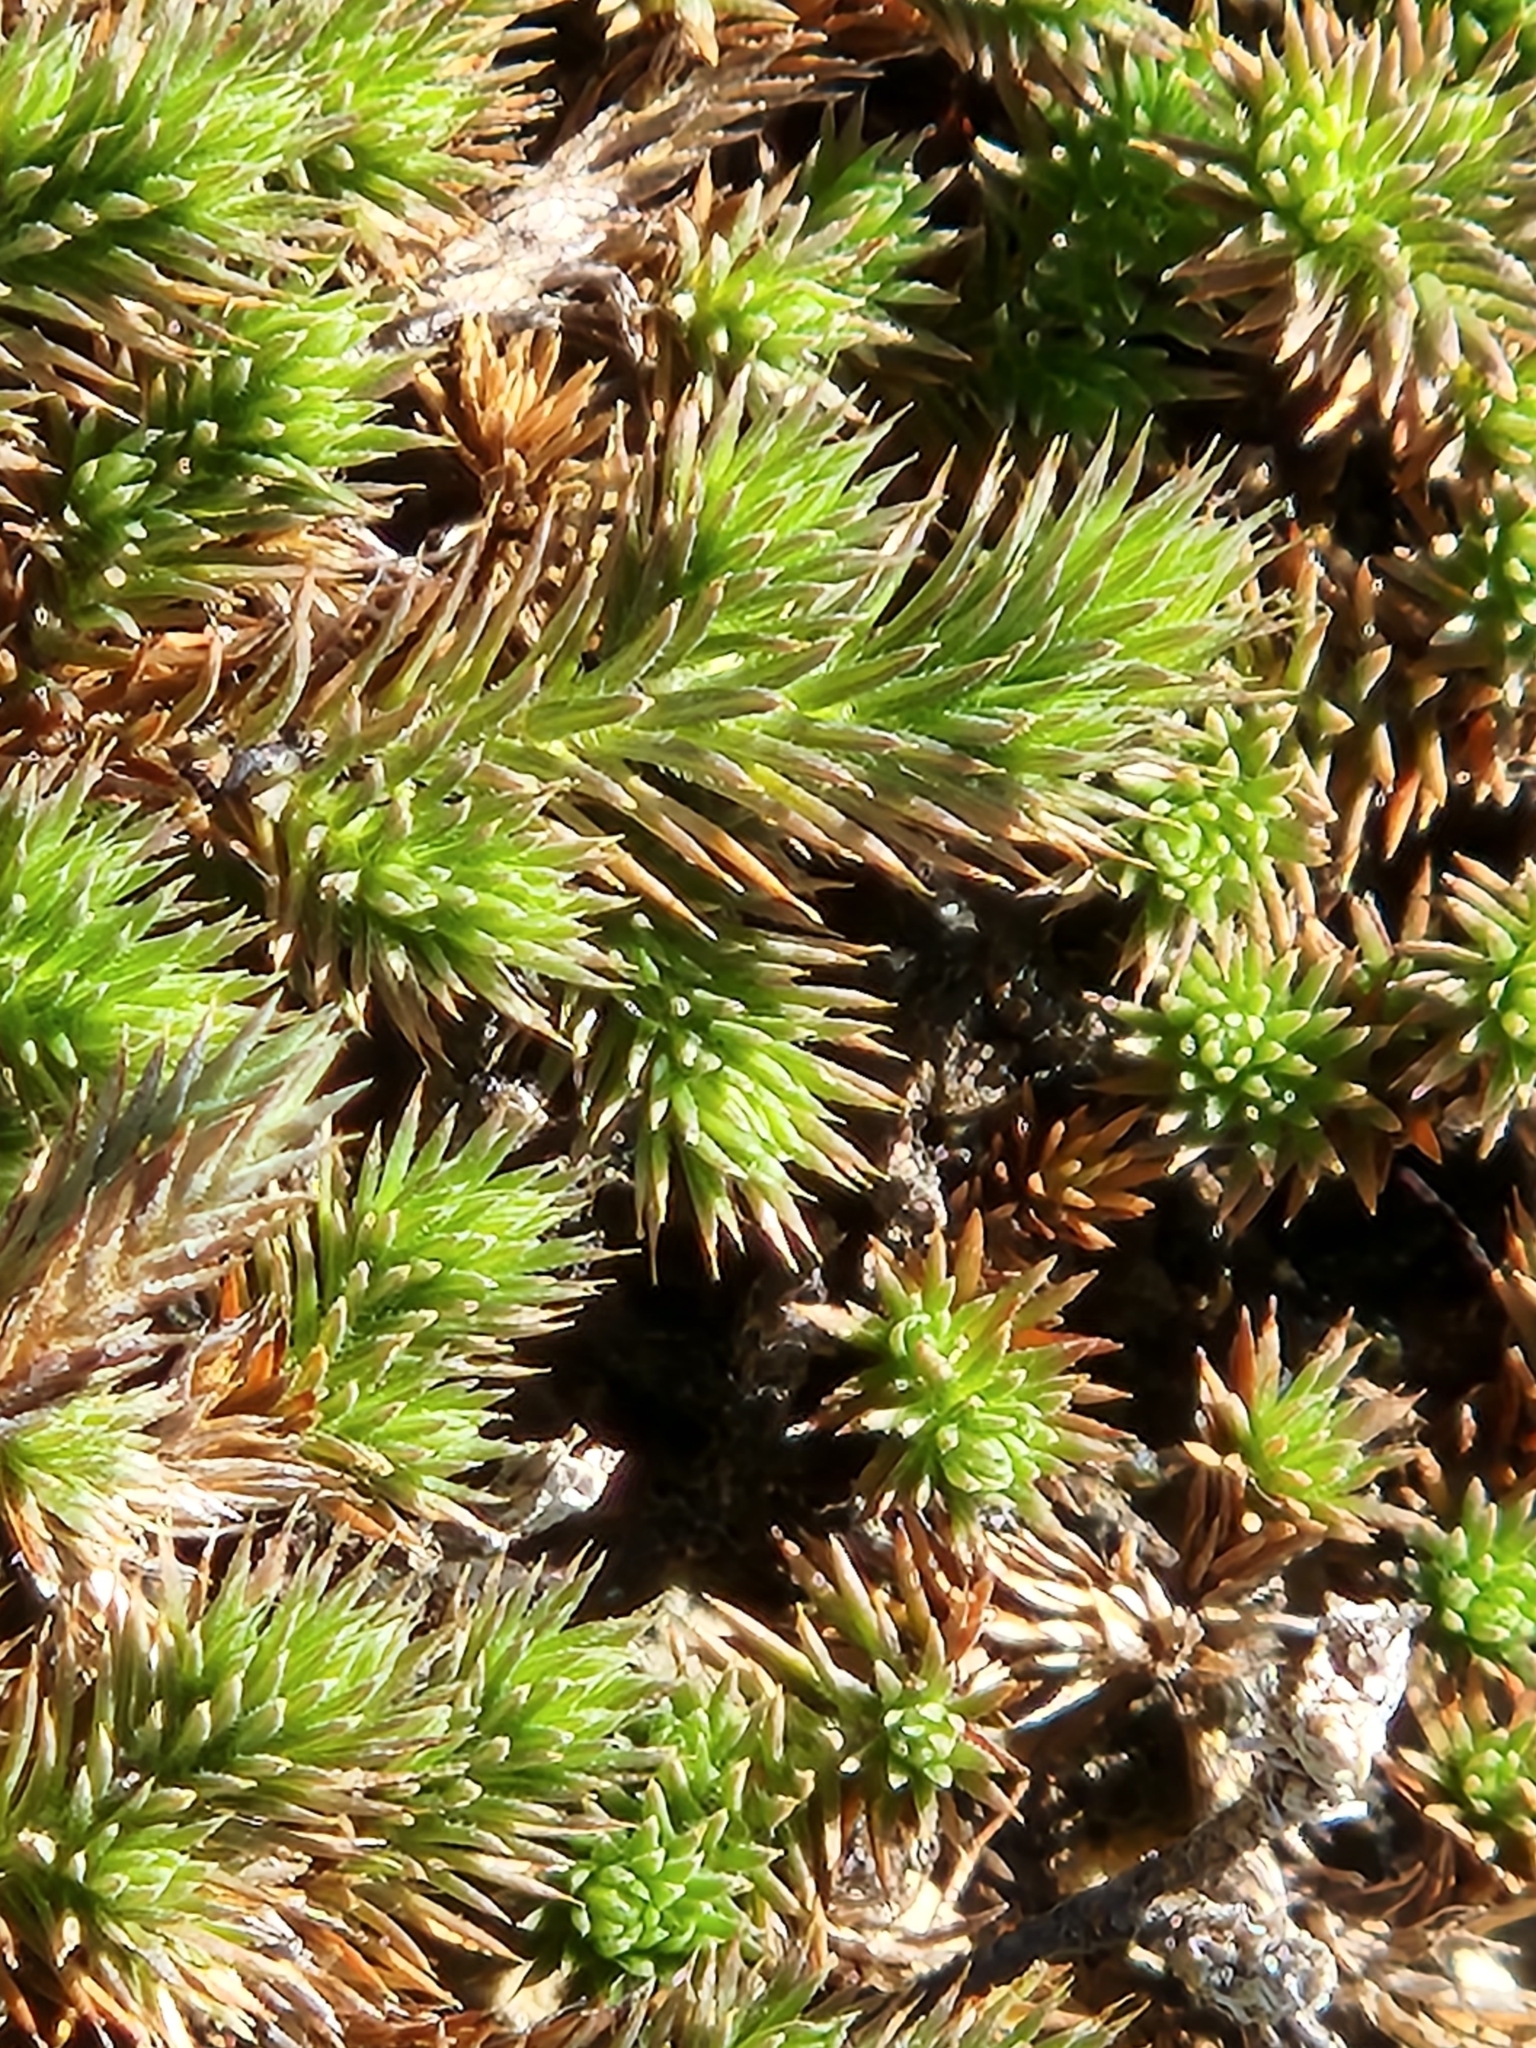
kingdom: Plantae
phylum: Tracheophyta
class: Lycopodiopsida
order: Selaginellales
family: Selaginellaceae
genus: Selaginella
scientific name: Selaginella wrightii
